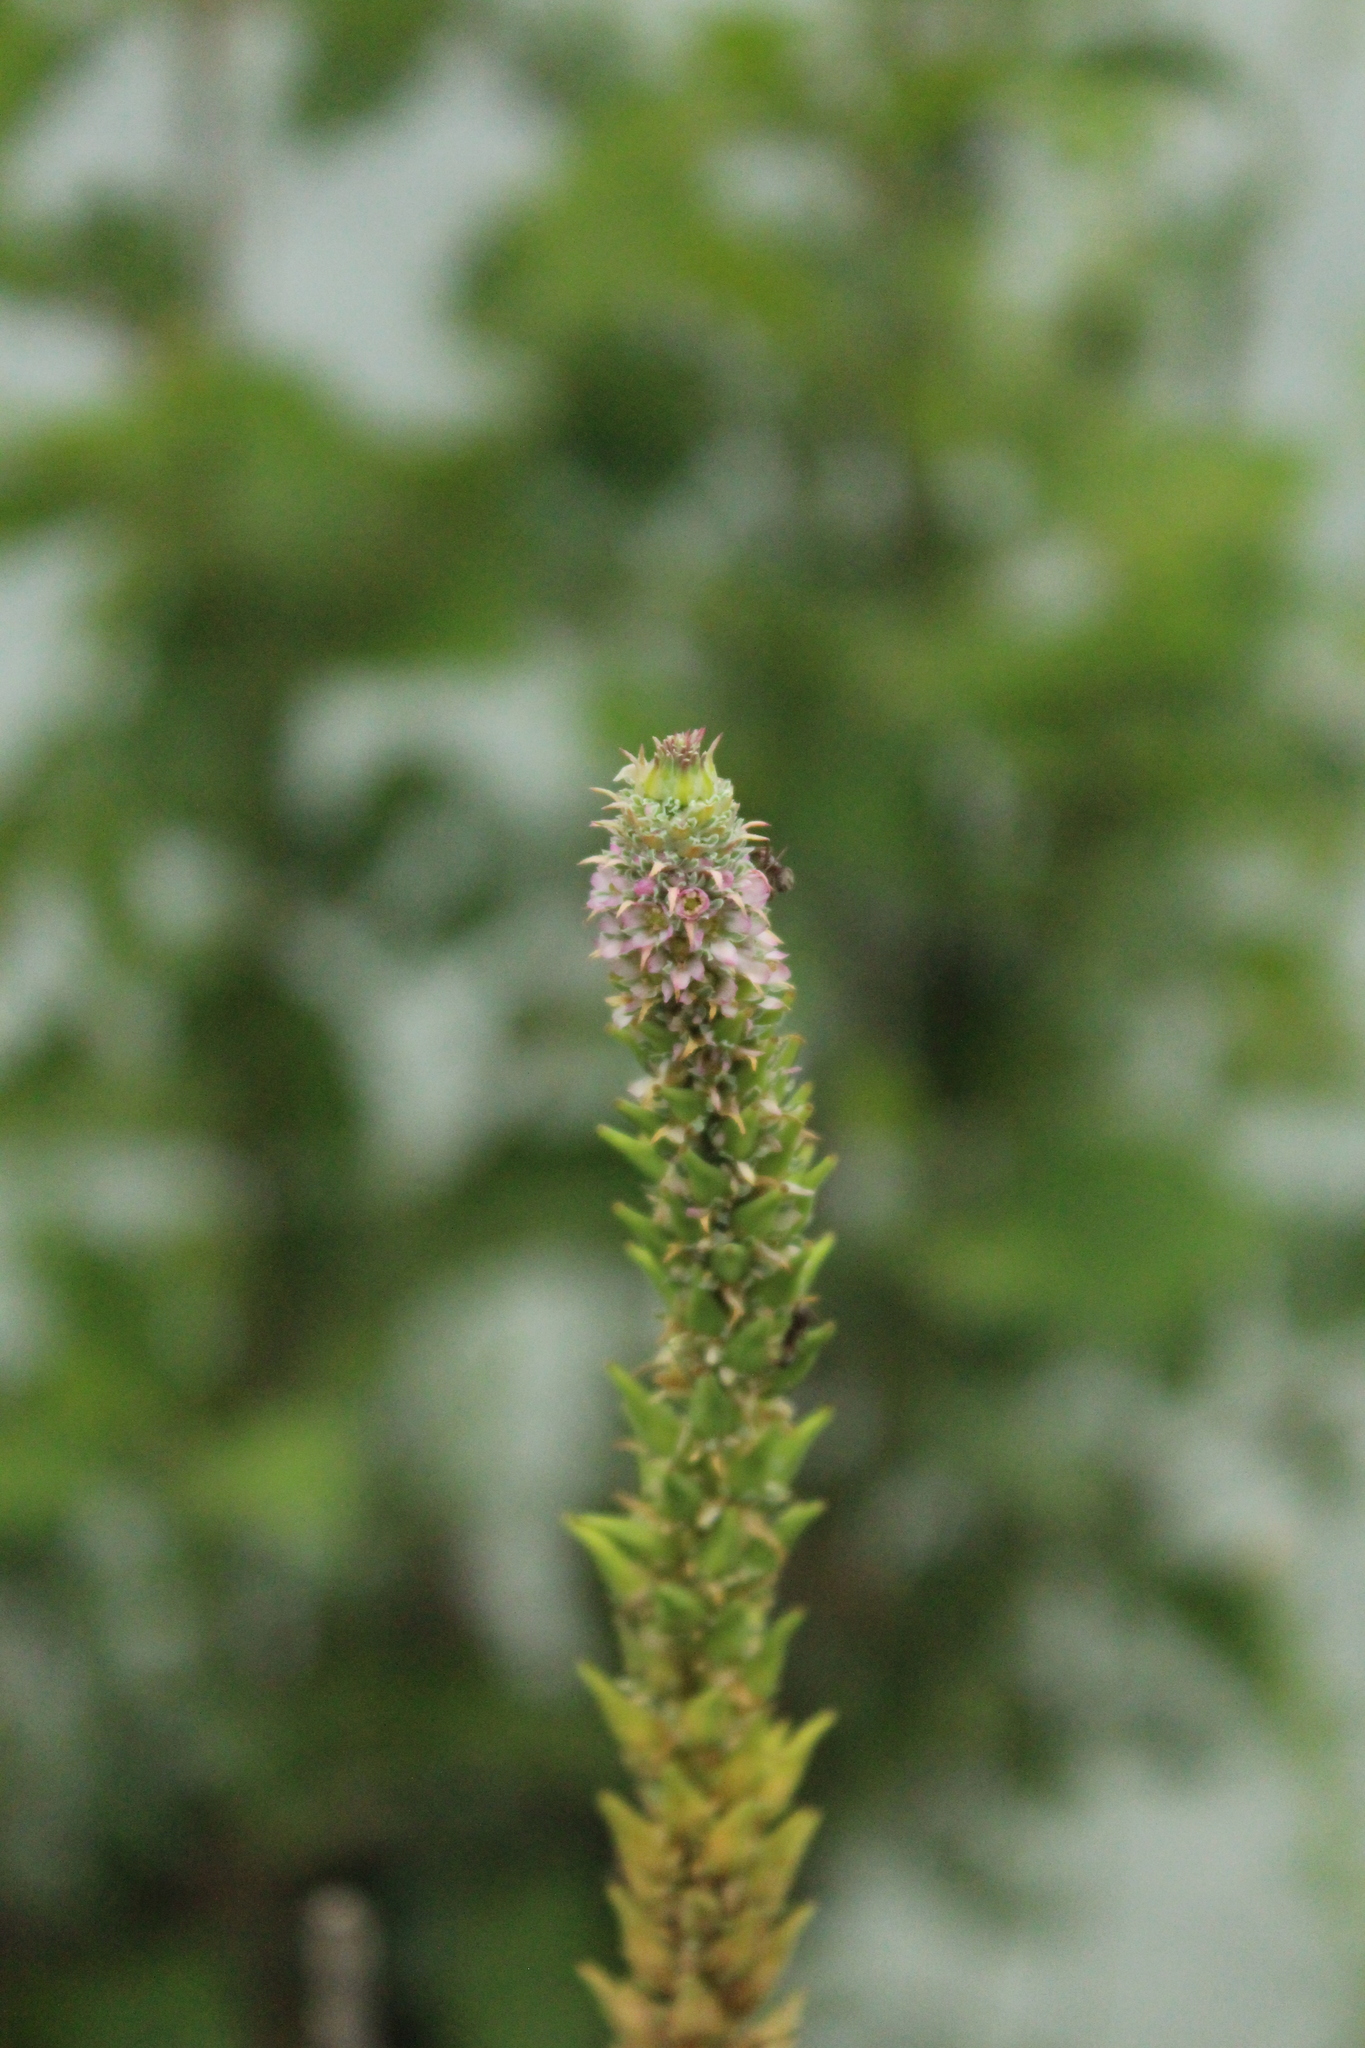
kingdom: Plantae
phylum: Tracheophyta
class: Magnoliopsida
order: Caryophyllales
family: Tamaricaceae
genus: Myricaria
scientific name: Myricaria bracteata
